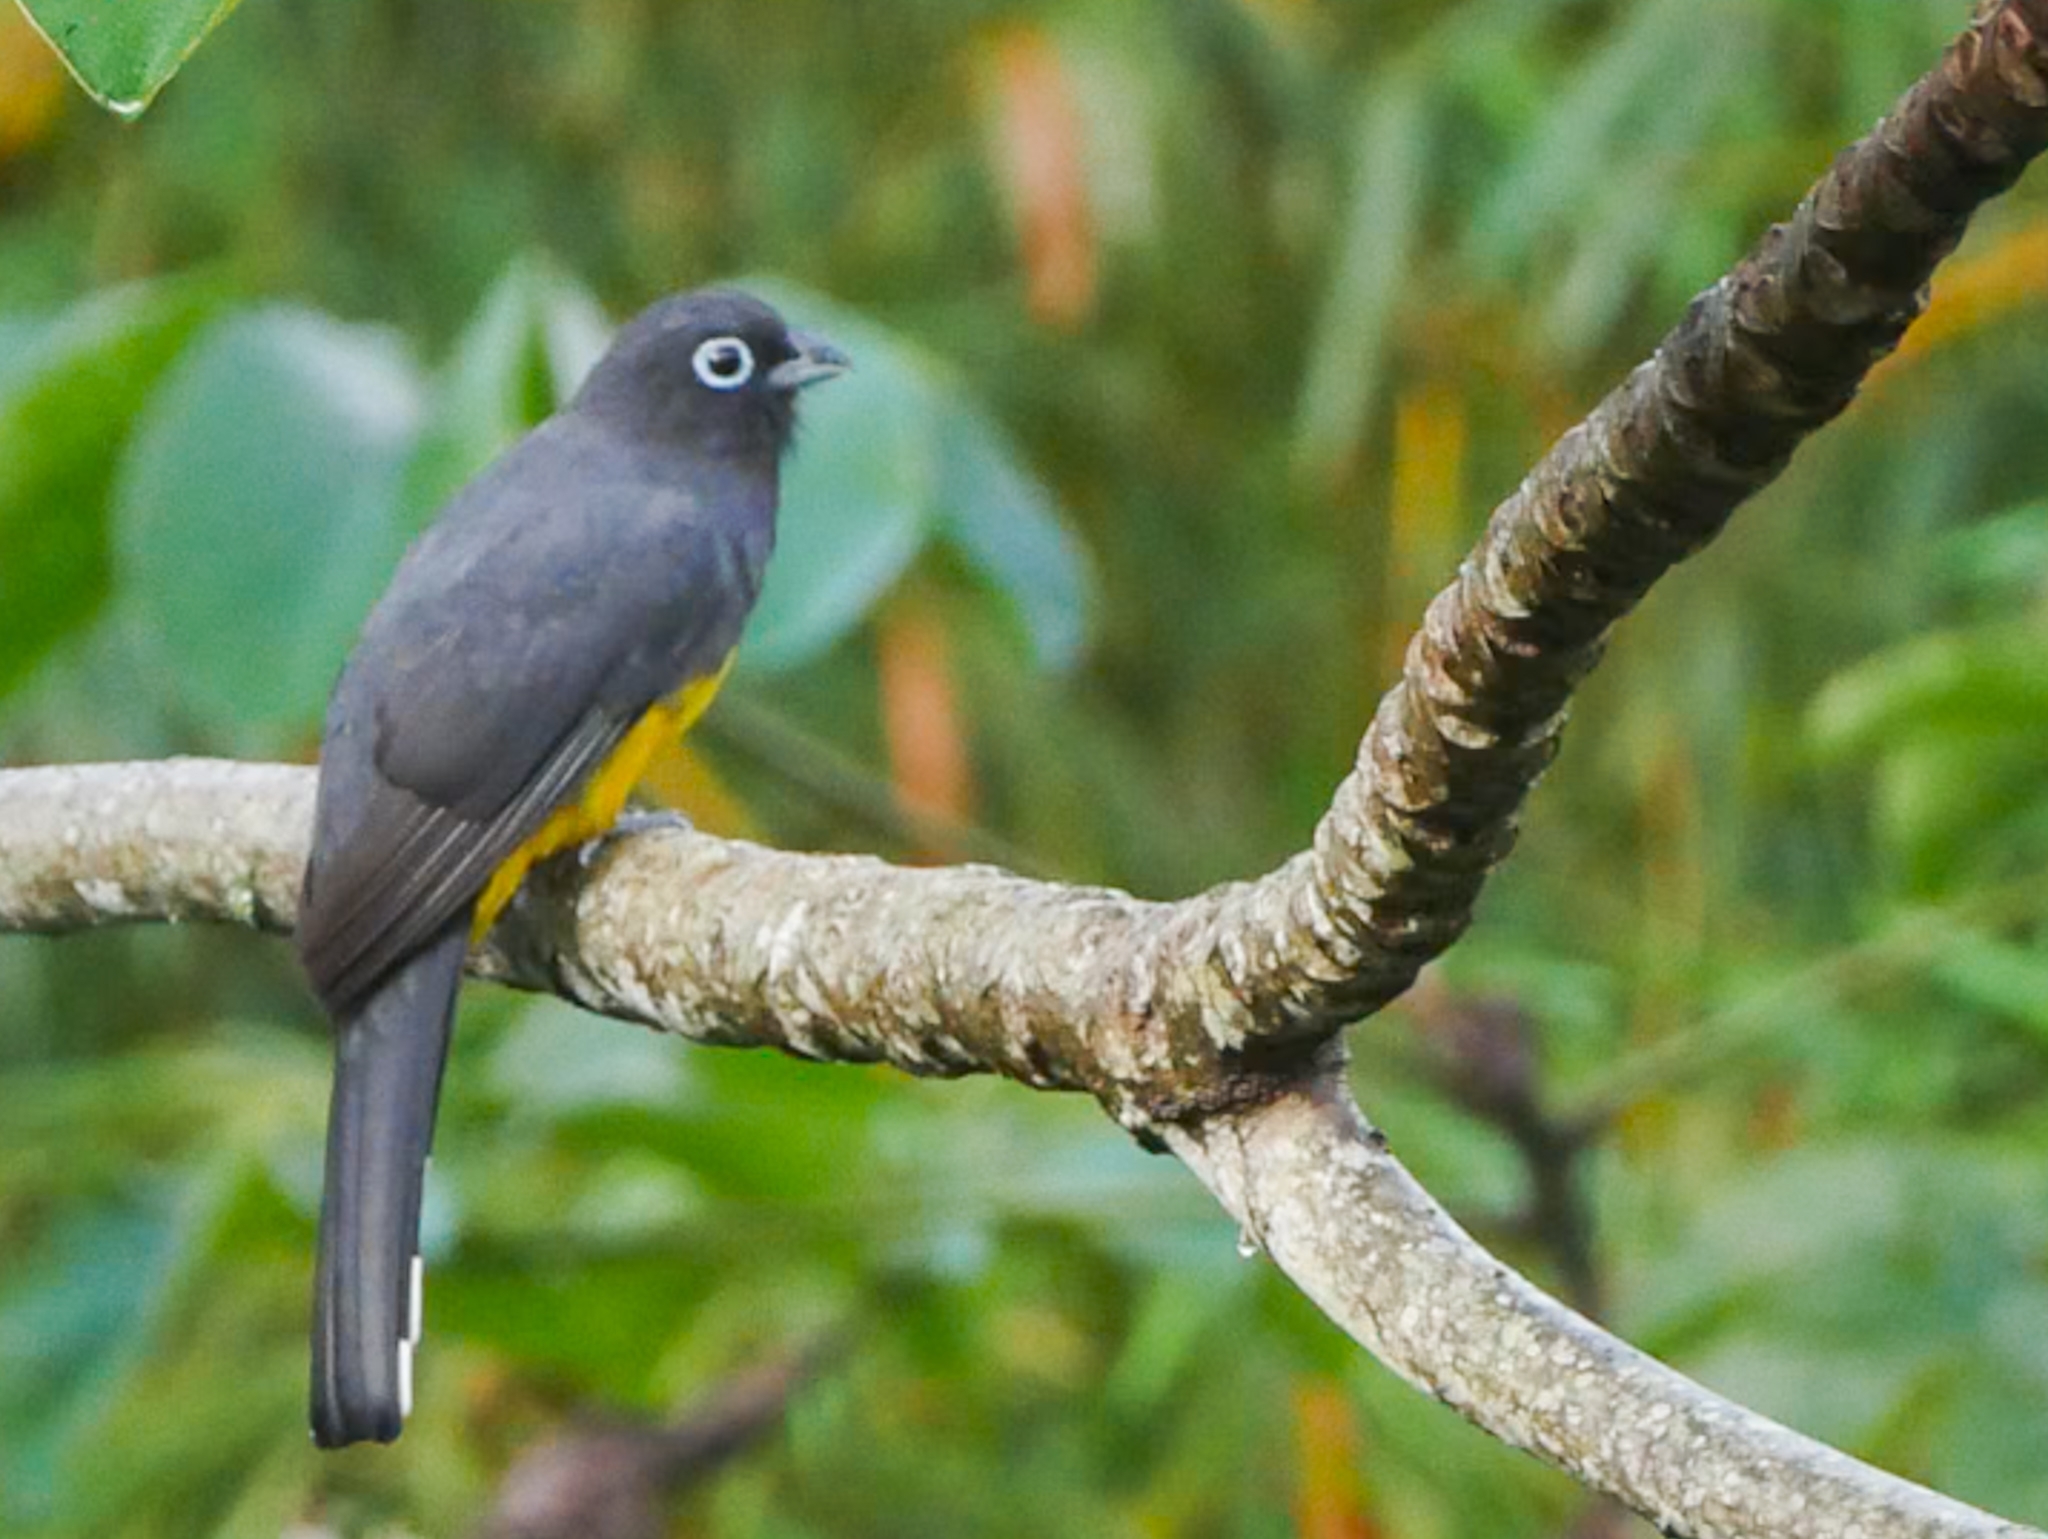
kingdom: Animalia
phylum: Chordata
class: Aves
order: Trogoniformes
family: Trogonidae
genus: Trogon
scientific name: Trogon melanocephalus
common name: Black-headed trogon
